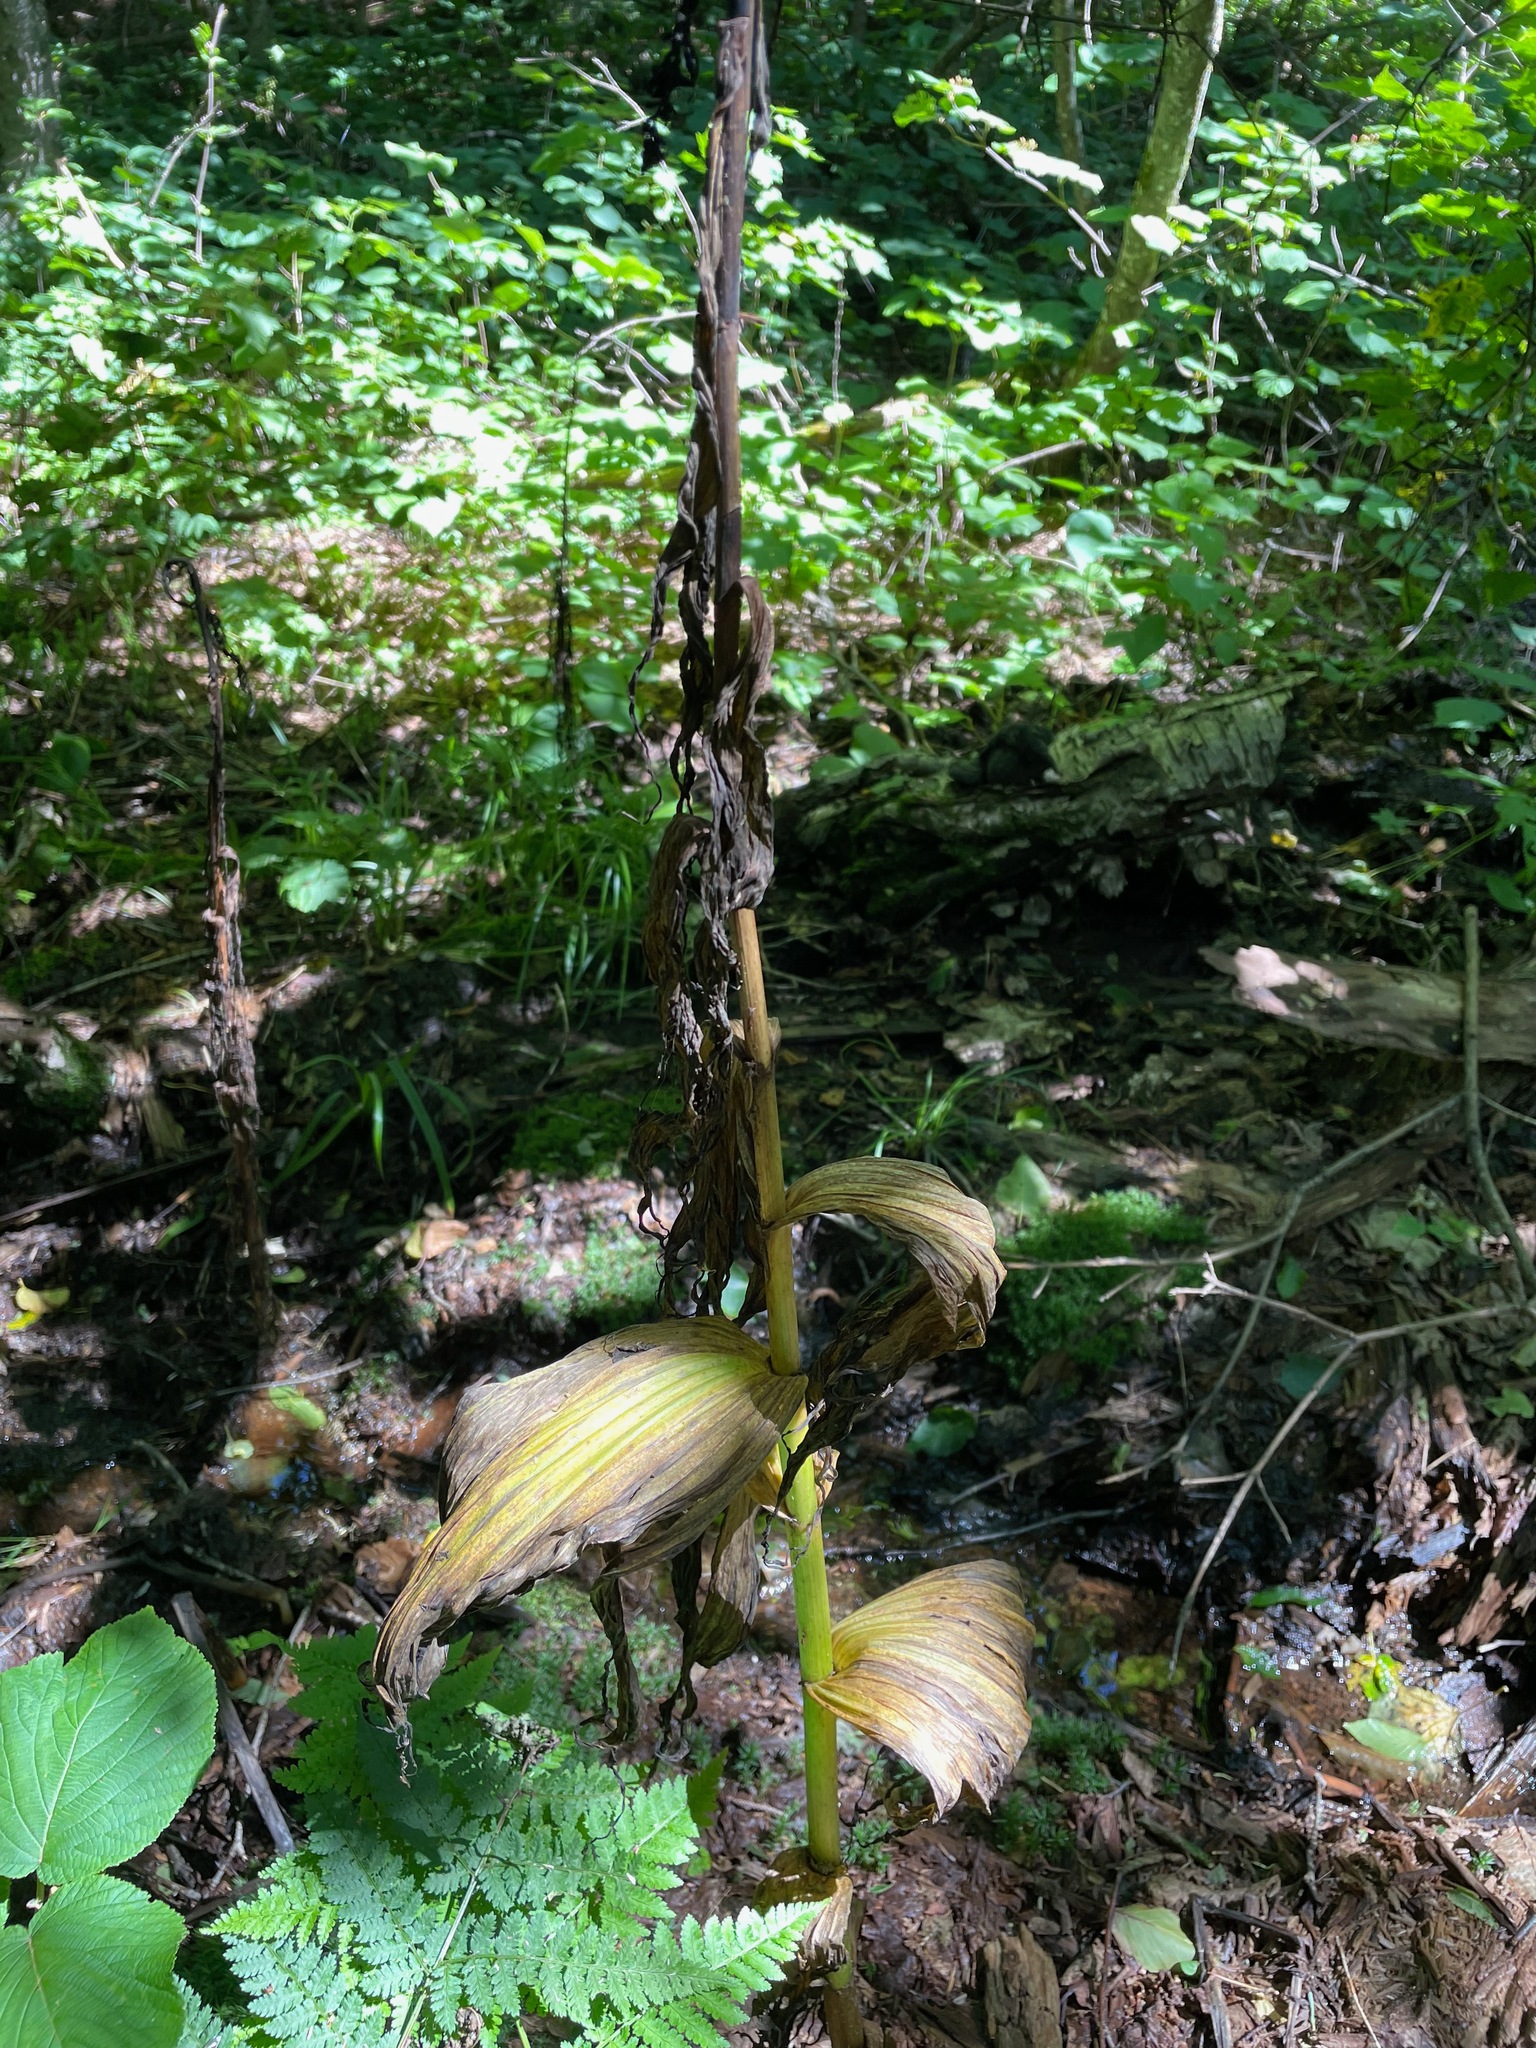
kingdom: Plantae
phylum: Tracheophyta
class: Liliopsida
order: Liliales
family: Melanthiaceae
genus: Veratrum
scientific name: Veratrum viride
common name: American false hellebore
